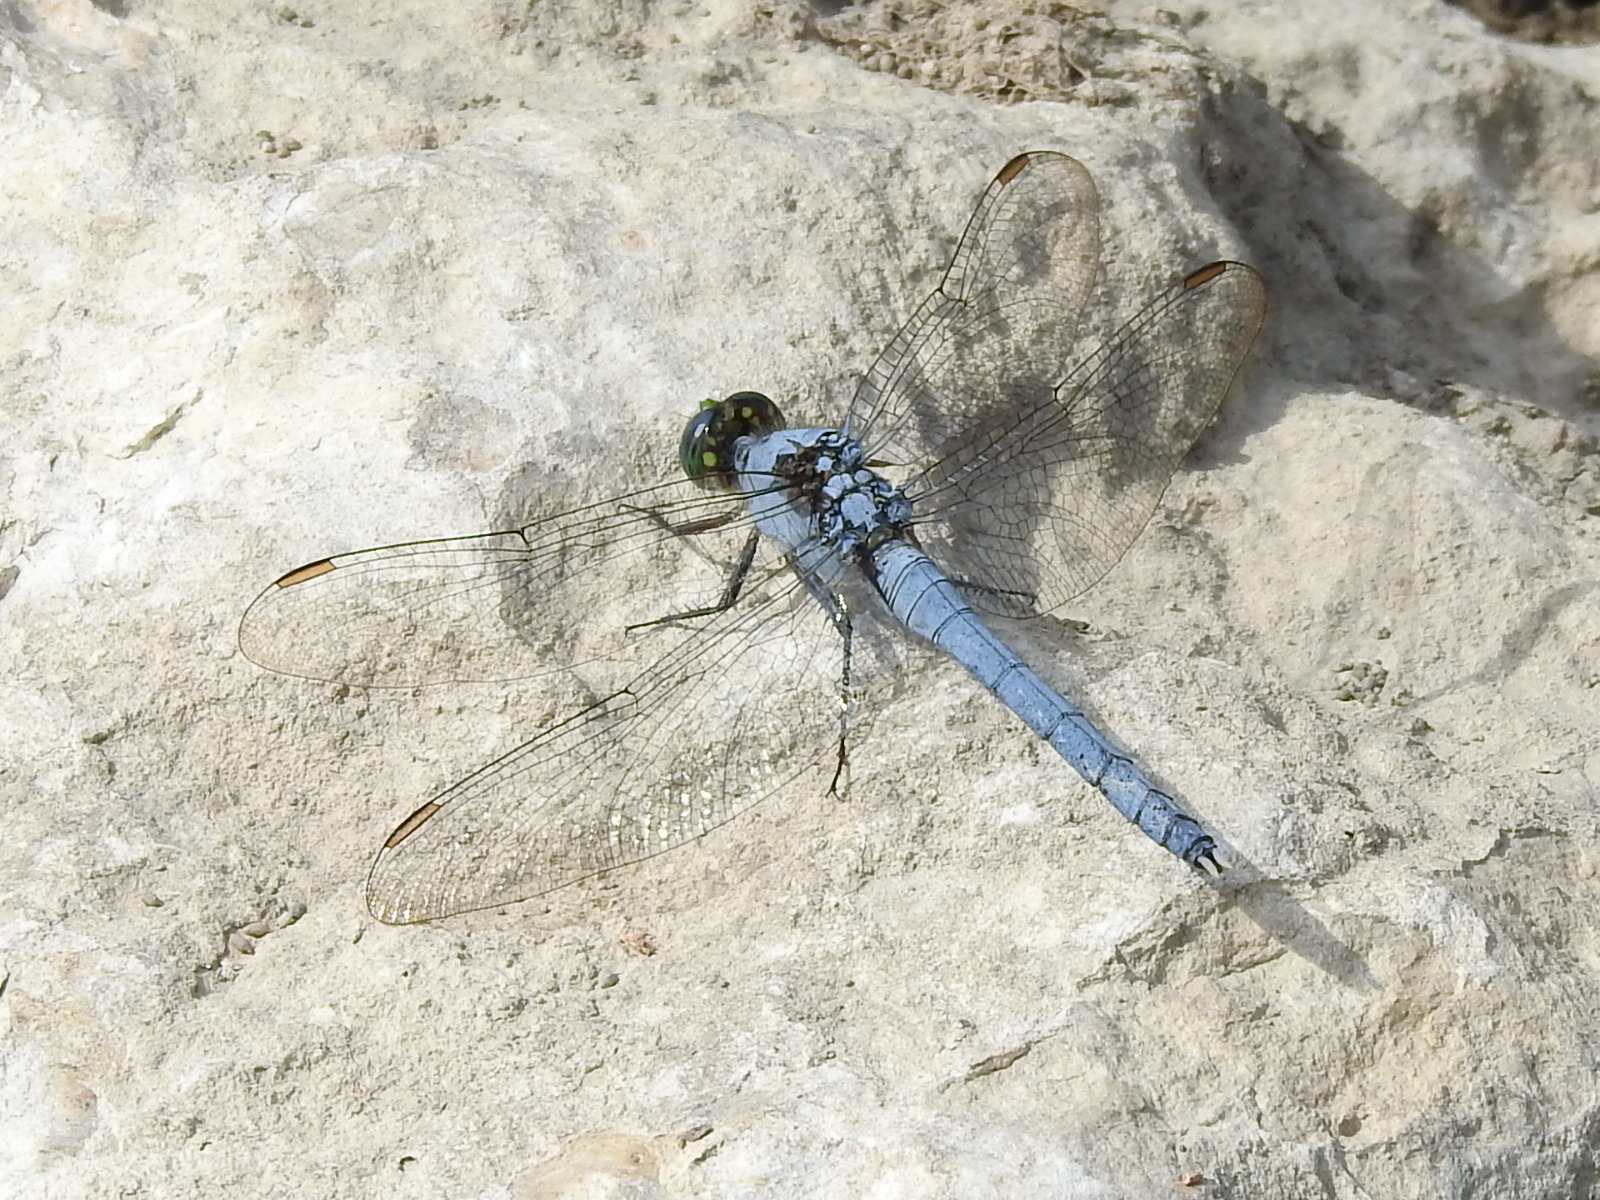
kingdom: Animalia
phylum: Arthropoda
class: Insecta
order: Odonata
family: Libellulidae
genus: Erythemis
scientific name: Erythemis simplicicollis
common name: Eastern pondhawk
